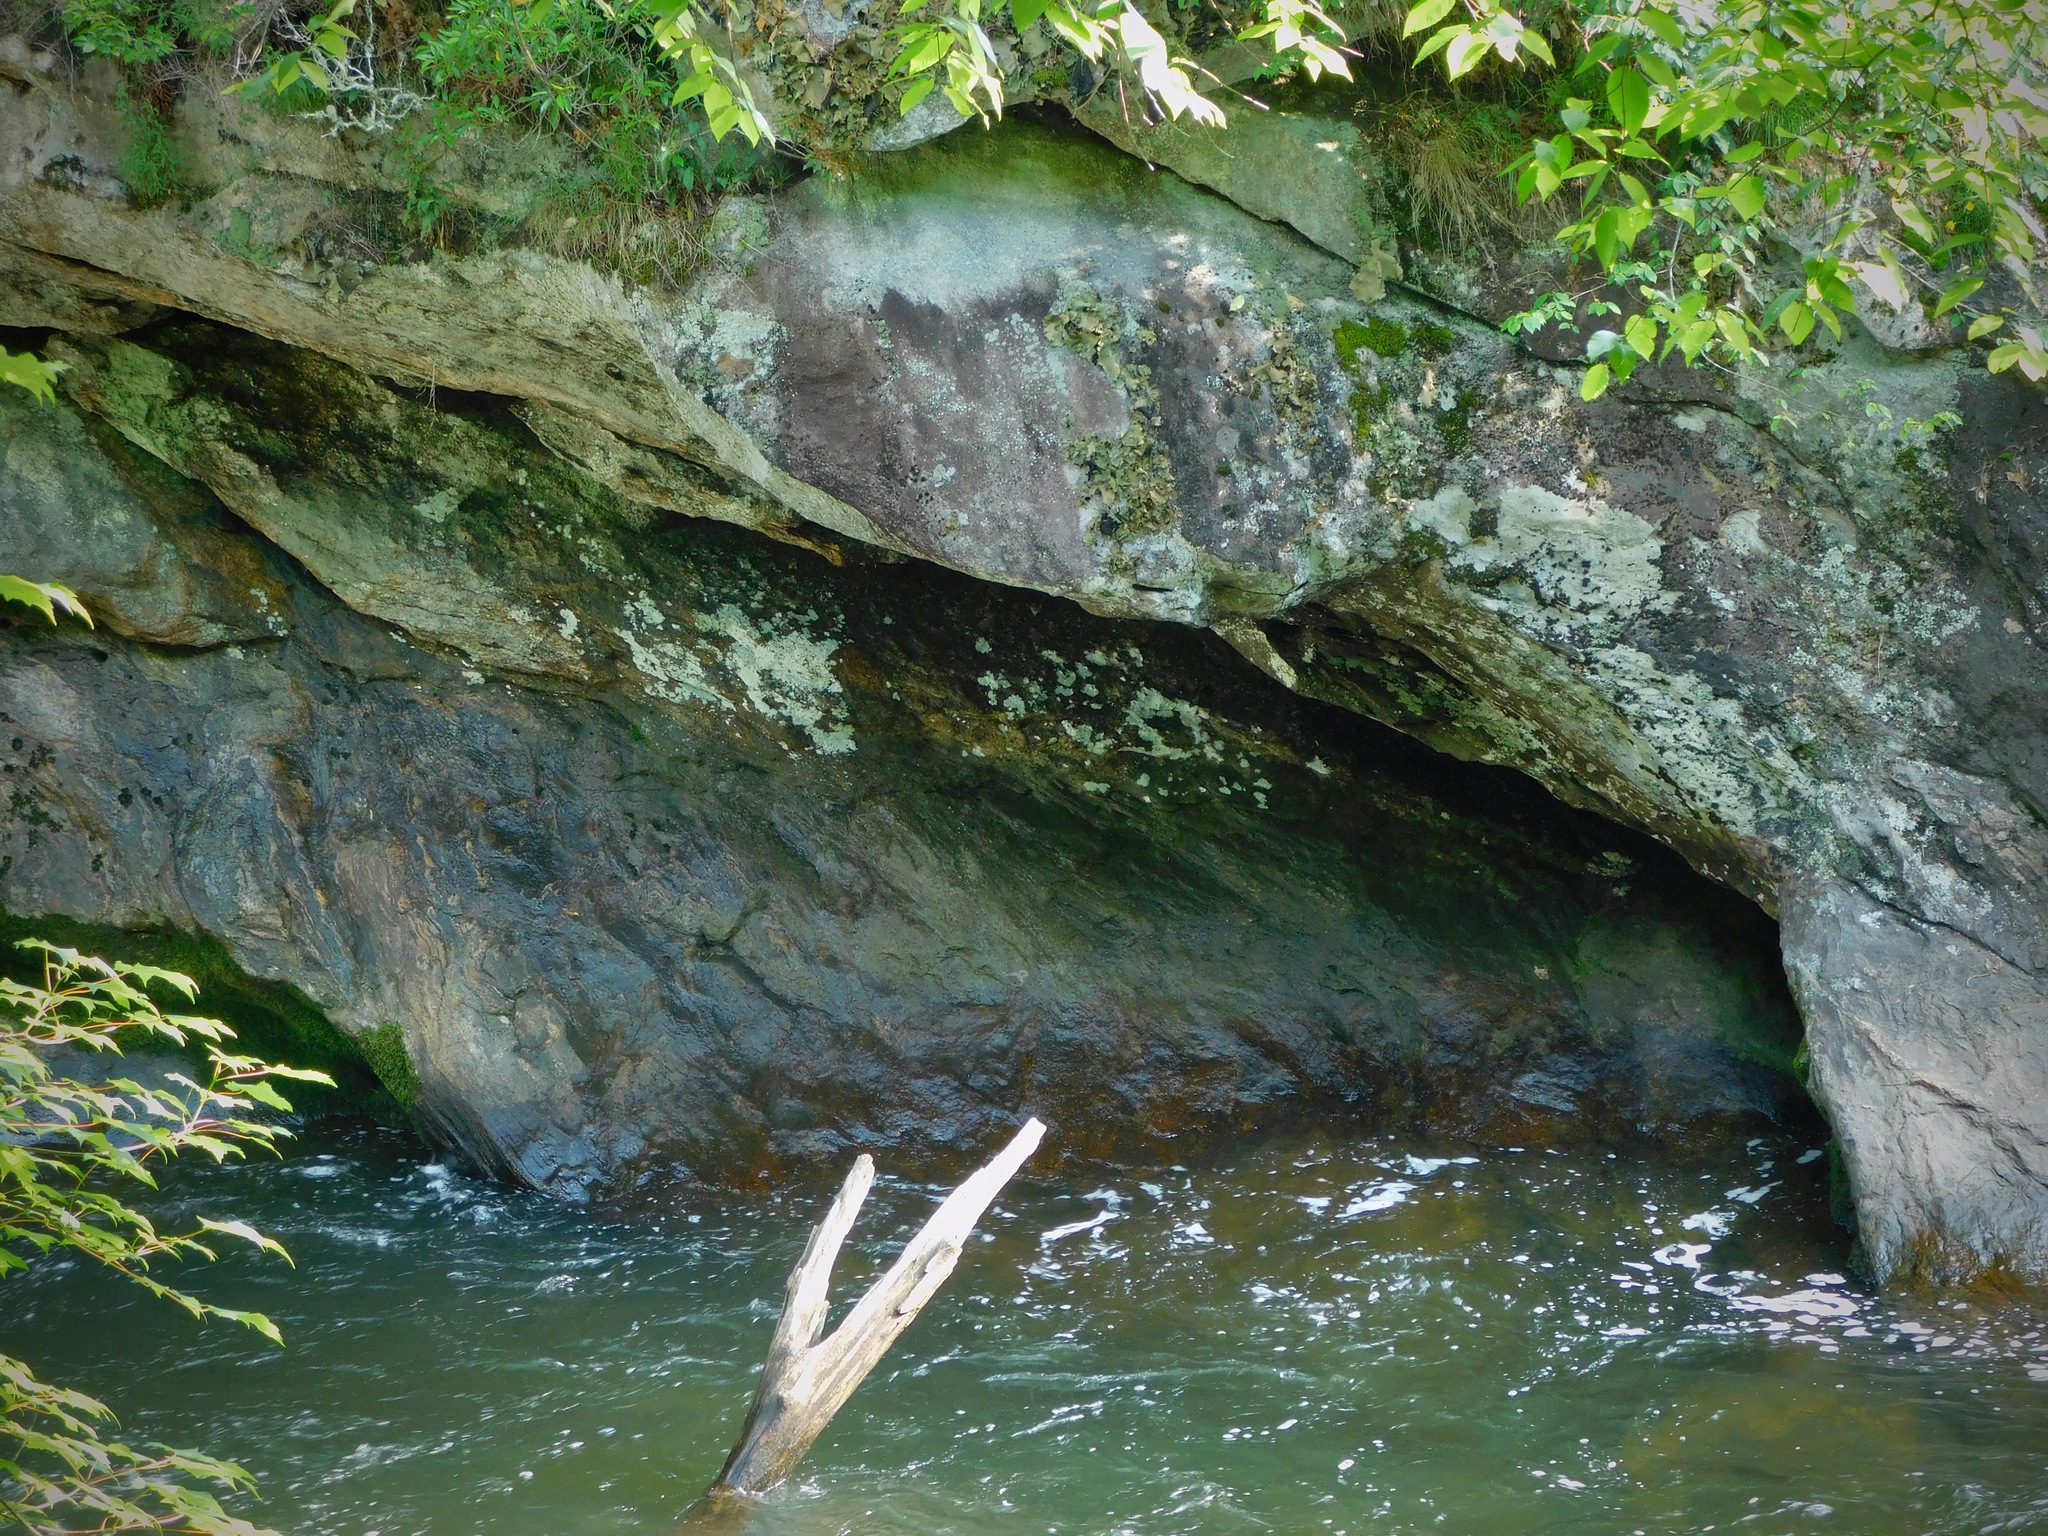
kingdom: Fungi
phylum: Ascomycota
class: Lecanoromycetes
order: Umbilicariales
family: Umbilicariaceae
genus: Umbilicaria
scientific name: Umbilicaria mammulata
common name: Smooth rock tripe
